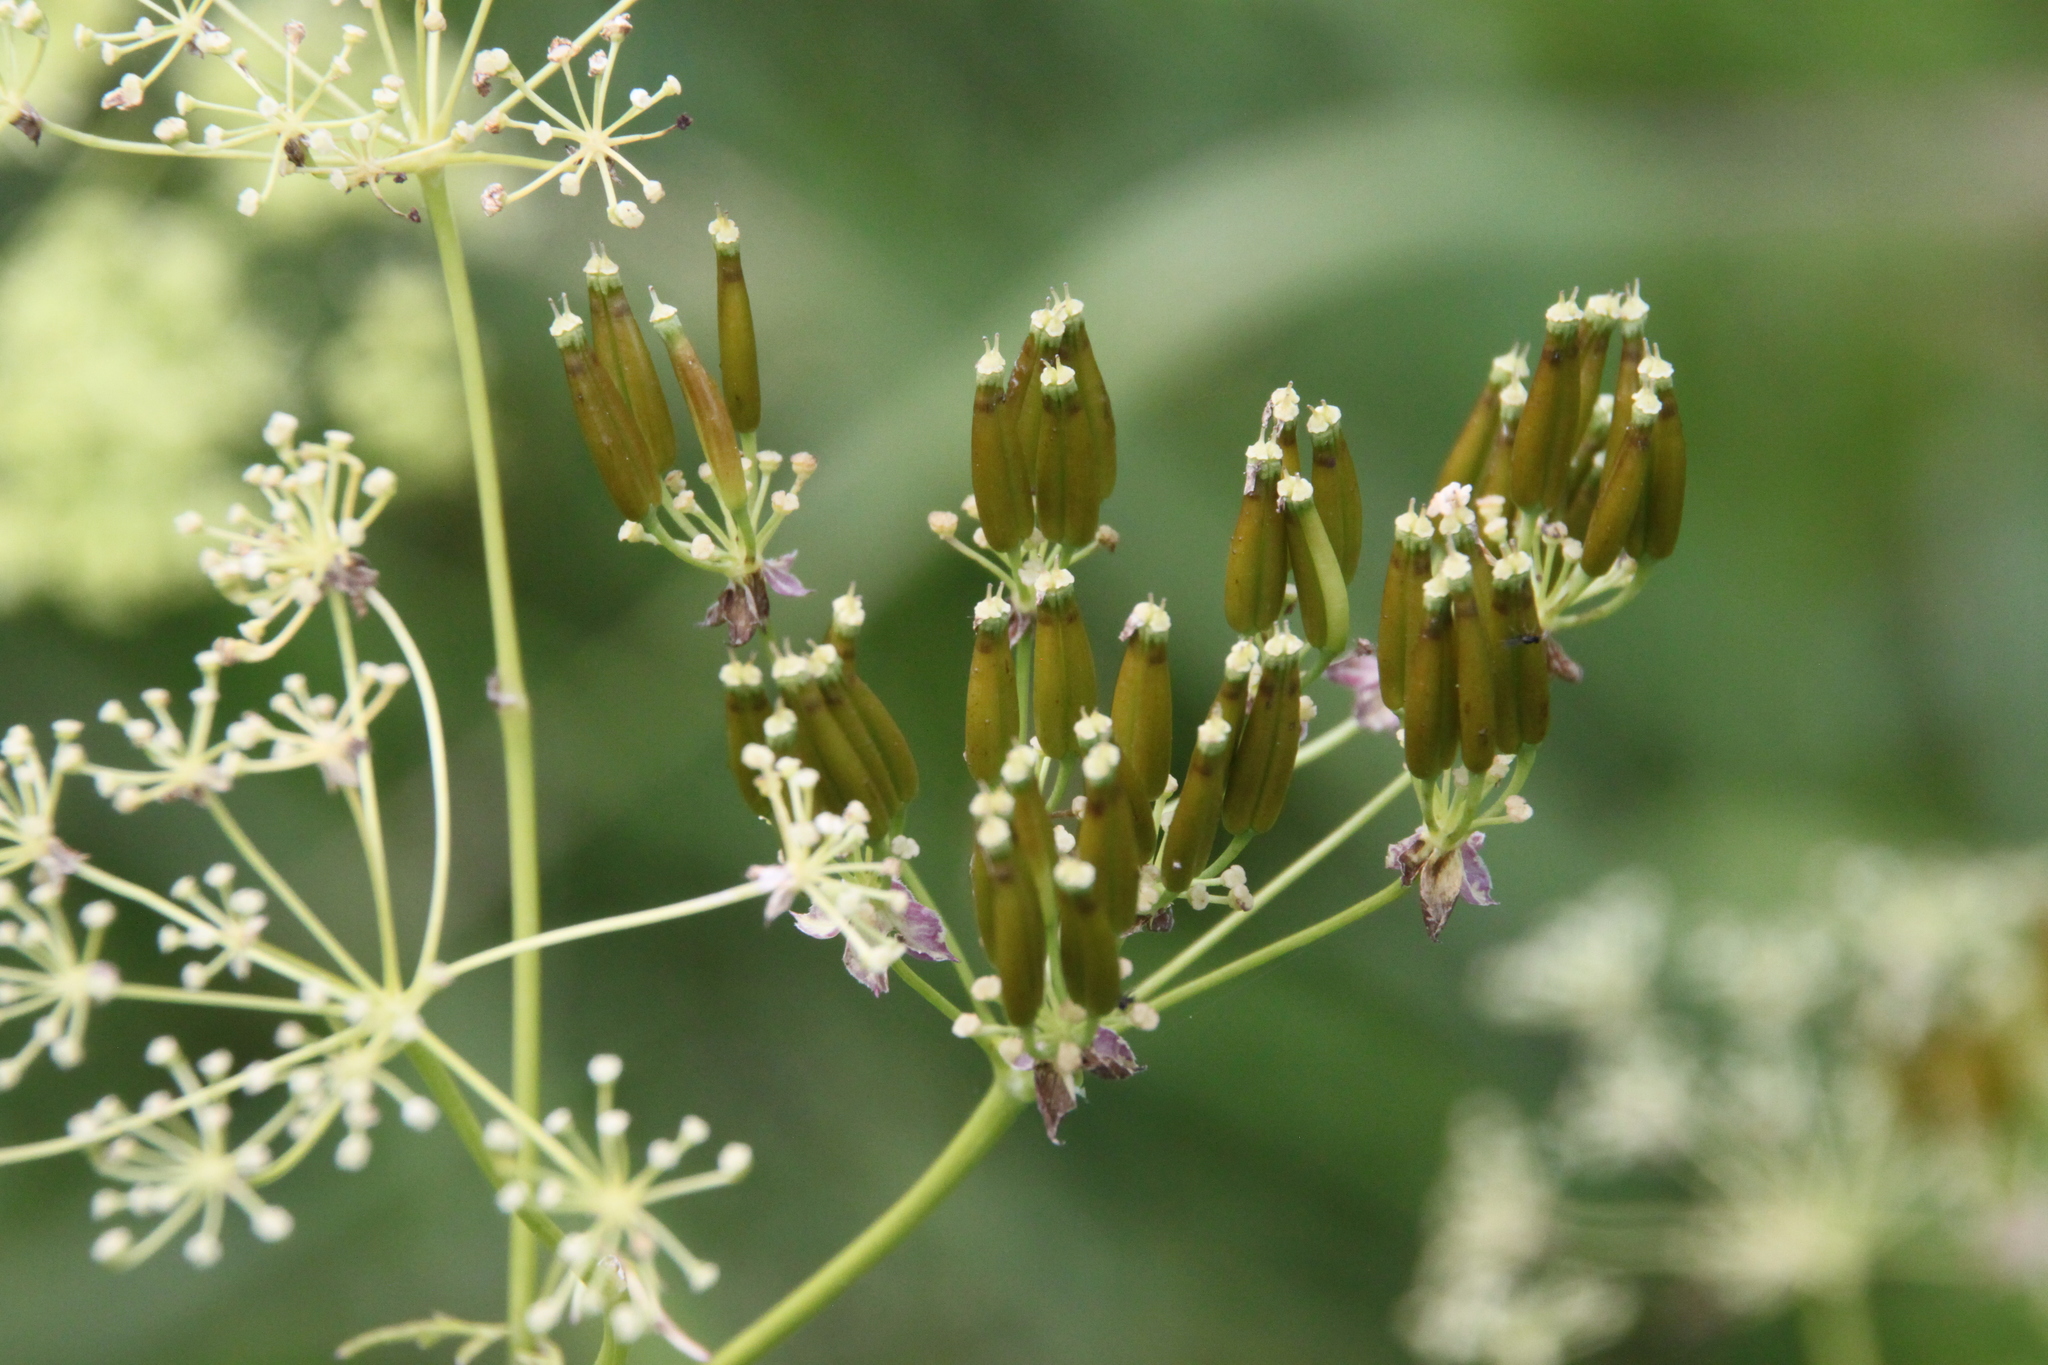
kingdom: Plantae
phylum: Tracheophyta
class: Magnoliopsida
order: Apiales
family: Apiaceae
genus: Anthriscus
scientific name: Anthriscus sylvestris
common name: Cow parsley
